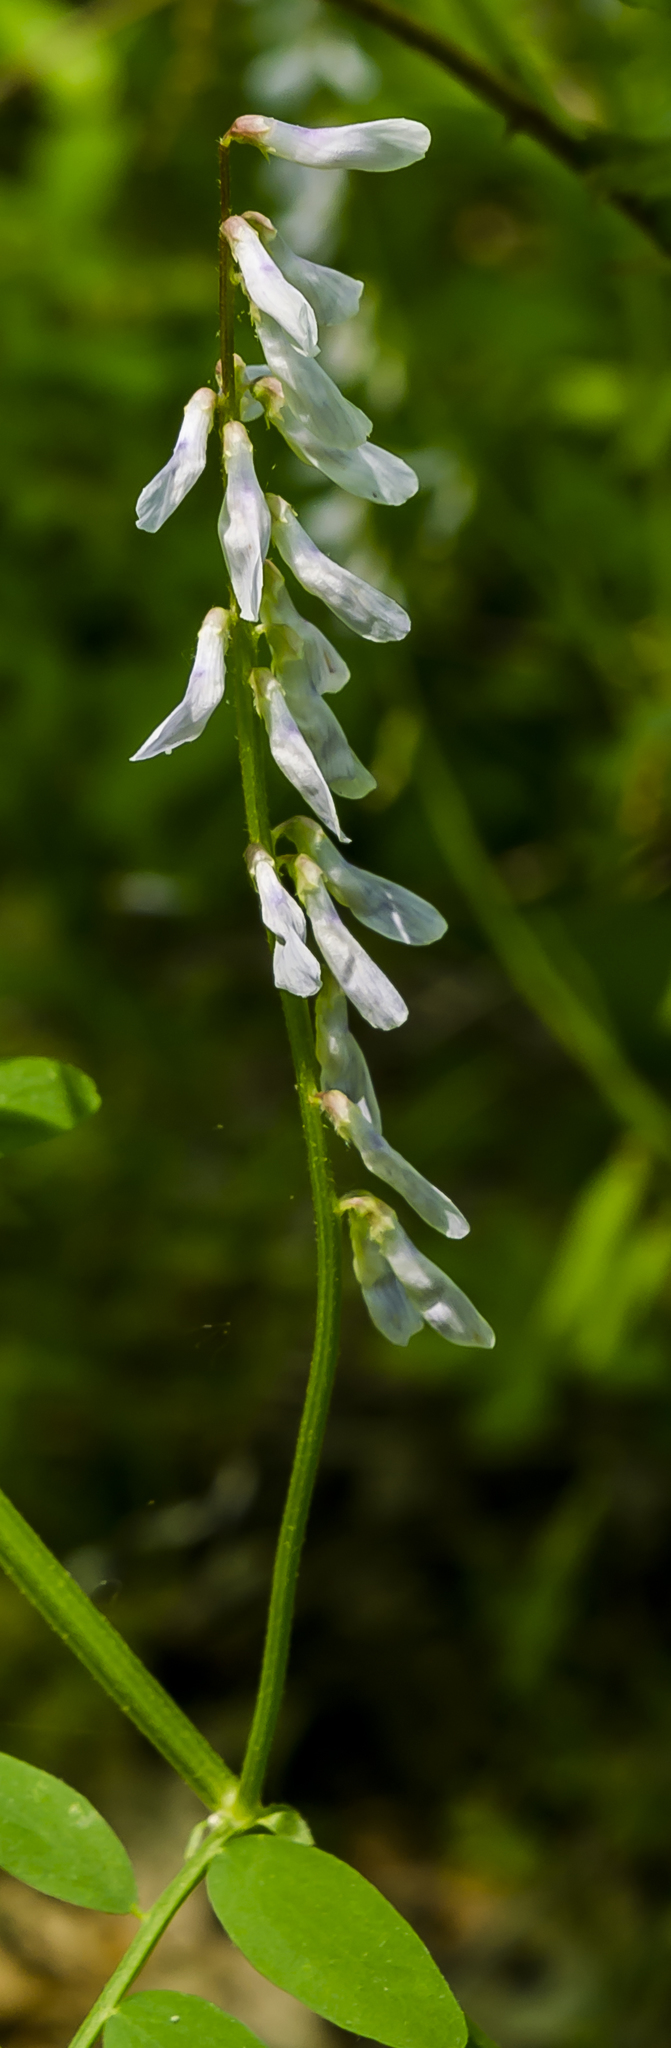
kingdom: Plantae
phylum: Tracheophyta
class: Magnoliopsida
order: Fabales
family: Fabaceae
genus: Vicia
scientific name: Vicia caroliniana
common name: Carolina vetch
